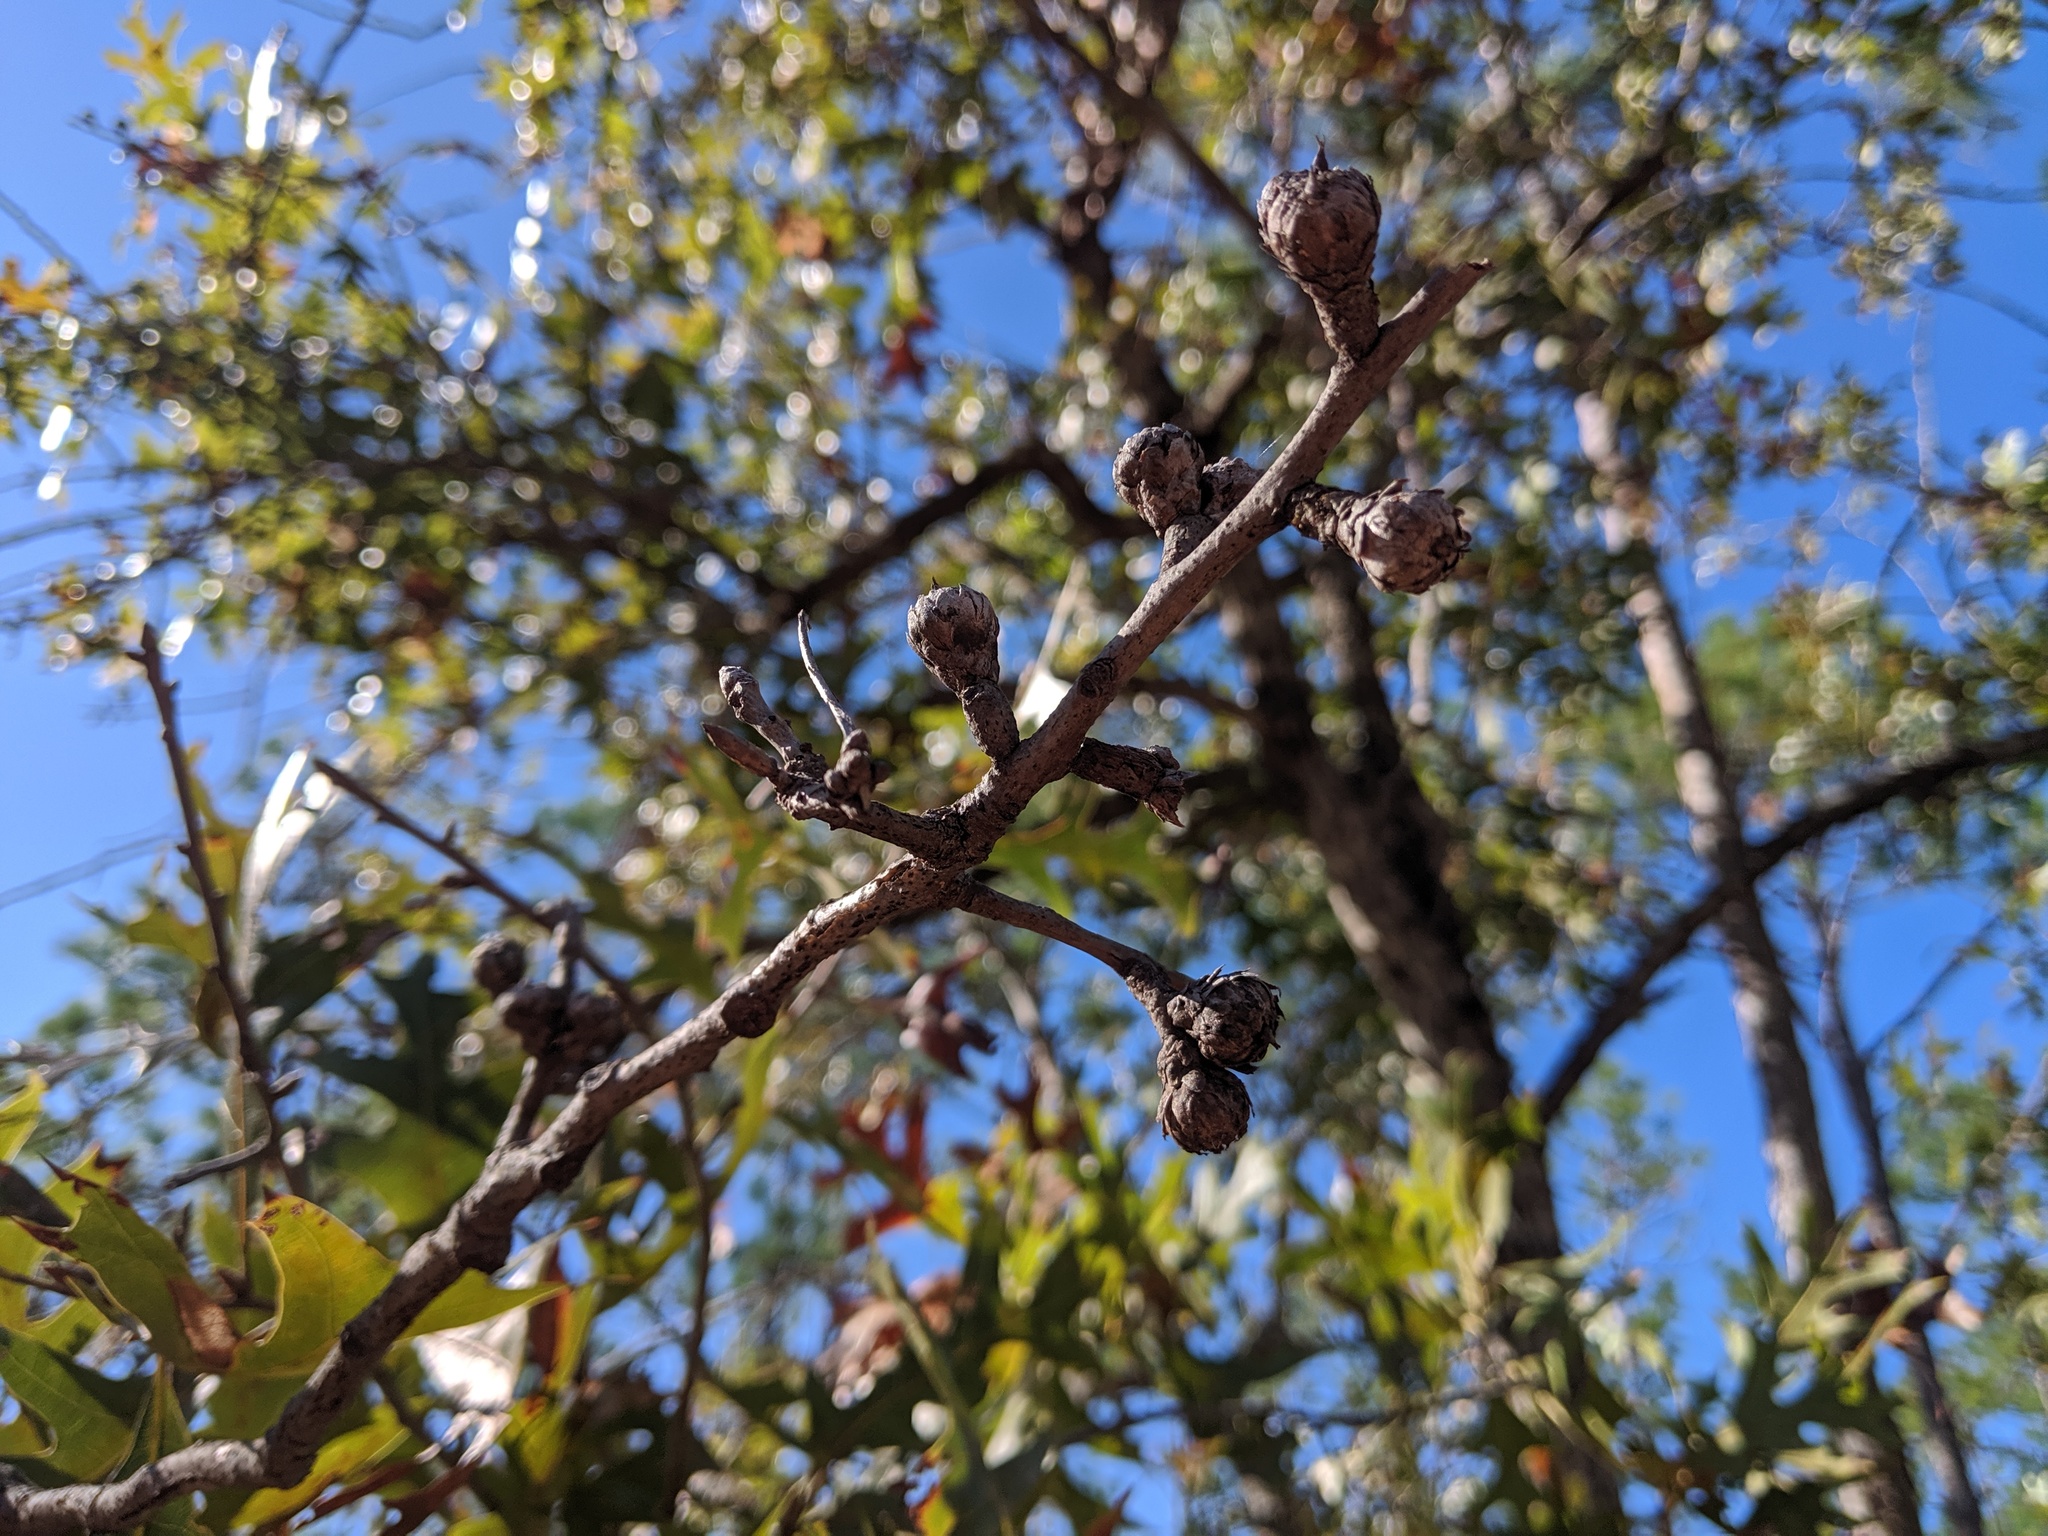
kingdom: Plantae
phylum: Tracheophyta
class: Magnoliopsida
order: Fagales
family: Fagaceae
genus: Quercus
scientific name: Quercus laevis
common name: Turkey oak
